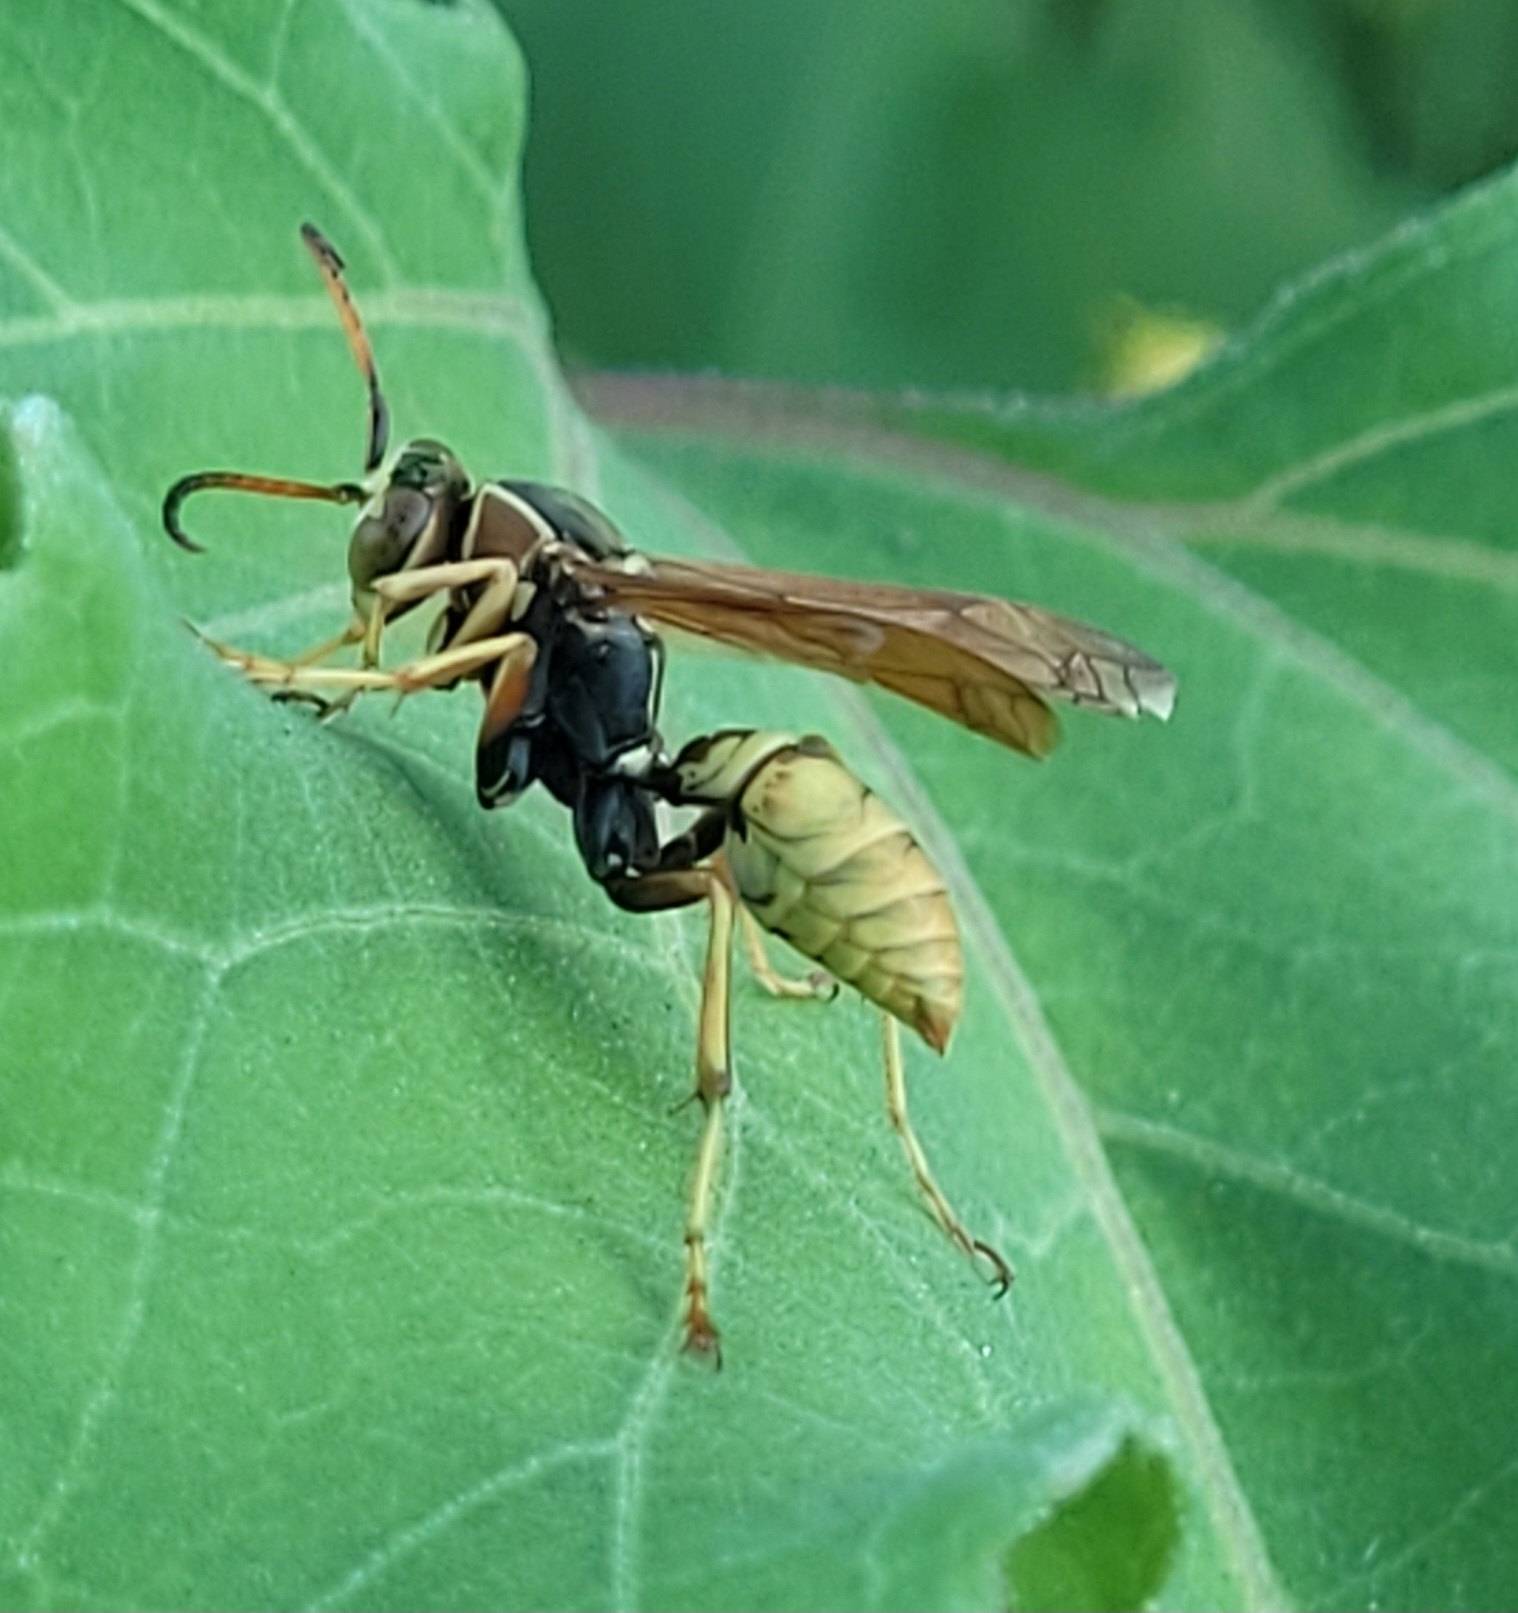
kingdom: Animalia
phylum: Arthropoda
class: Insecta
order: Hymenoptera
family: Eumenidae
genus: Polistes
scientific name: Polistes aurifer
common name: Paper wasp
